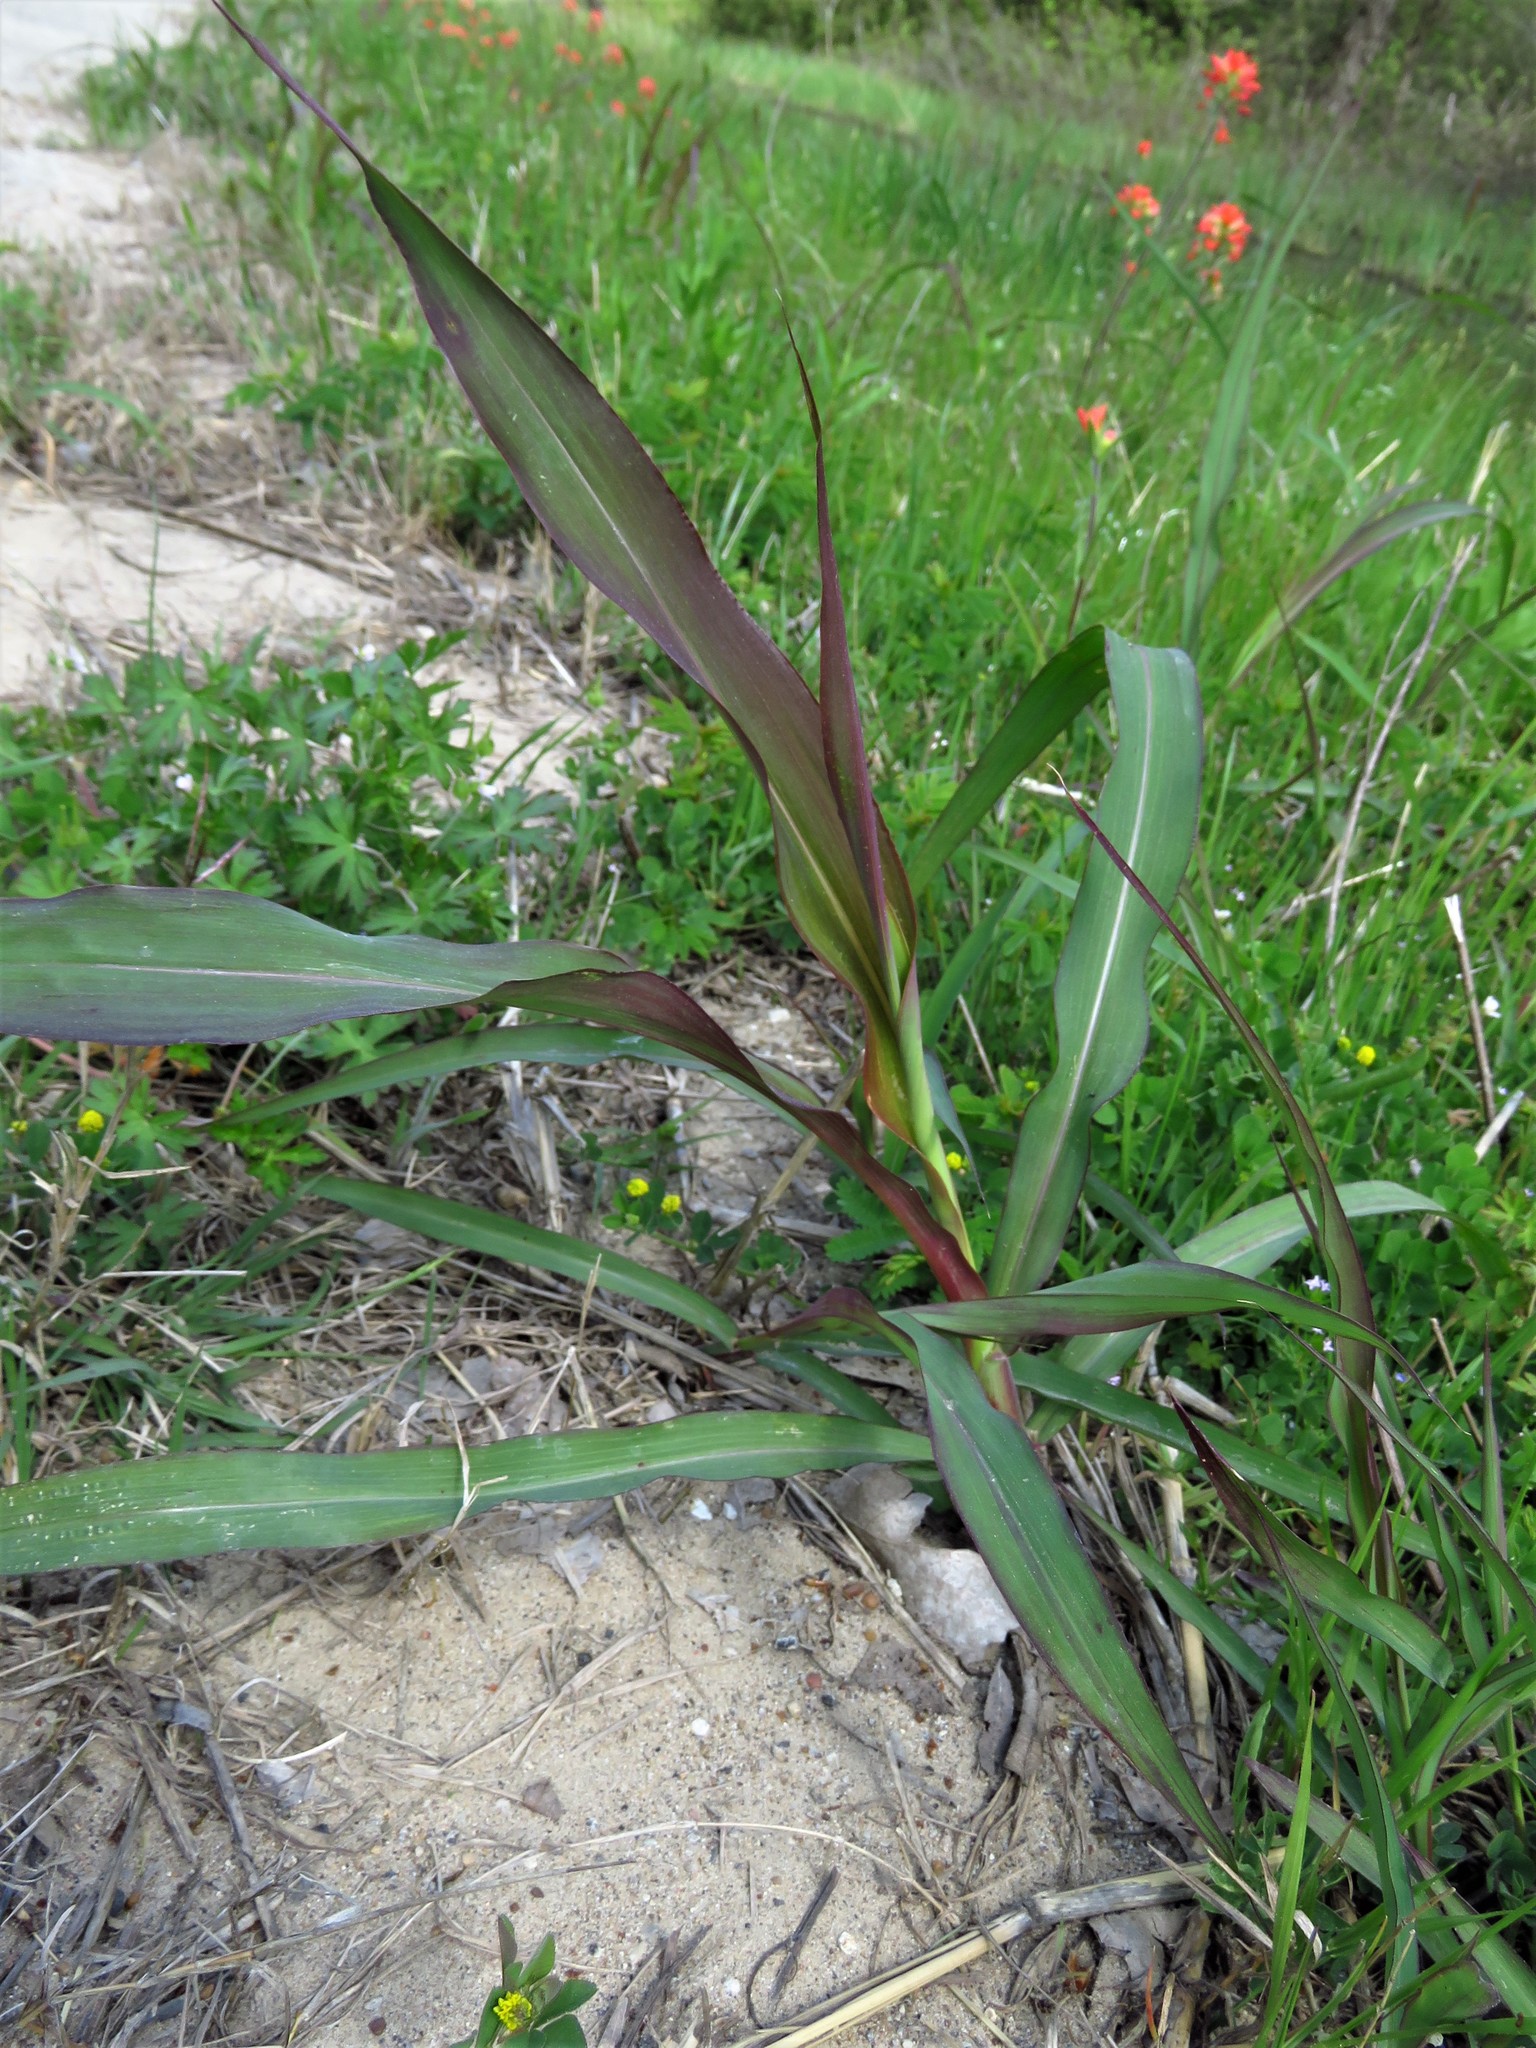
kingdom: Plantae
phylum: Tracheophyta
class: Liliopsida
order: Poales
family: Poaceae
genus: Sorghum
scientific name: Sorghum halepense
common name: Johnson-grass
